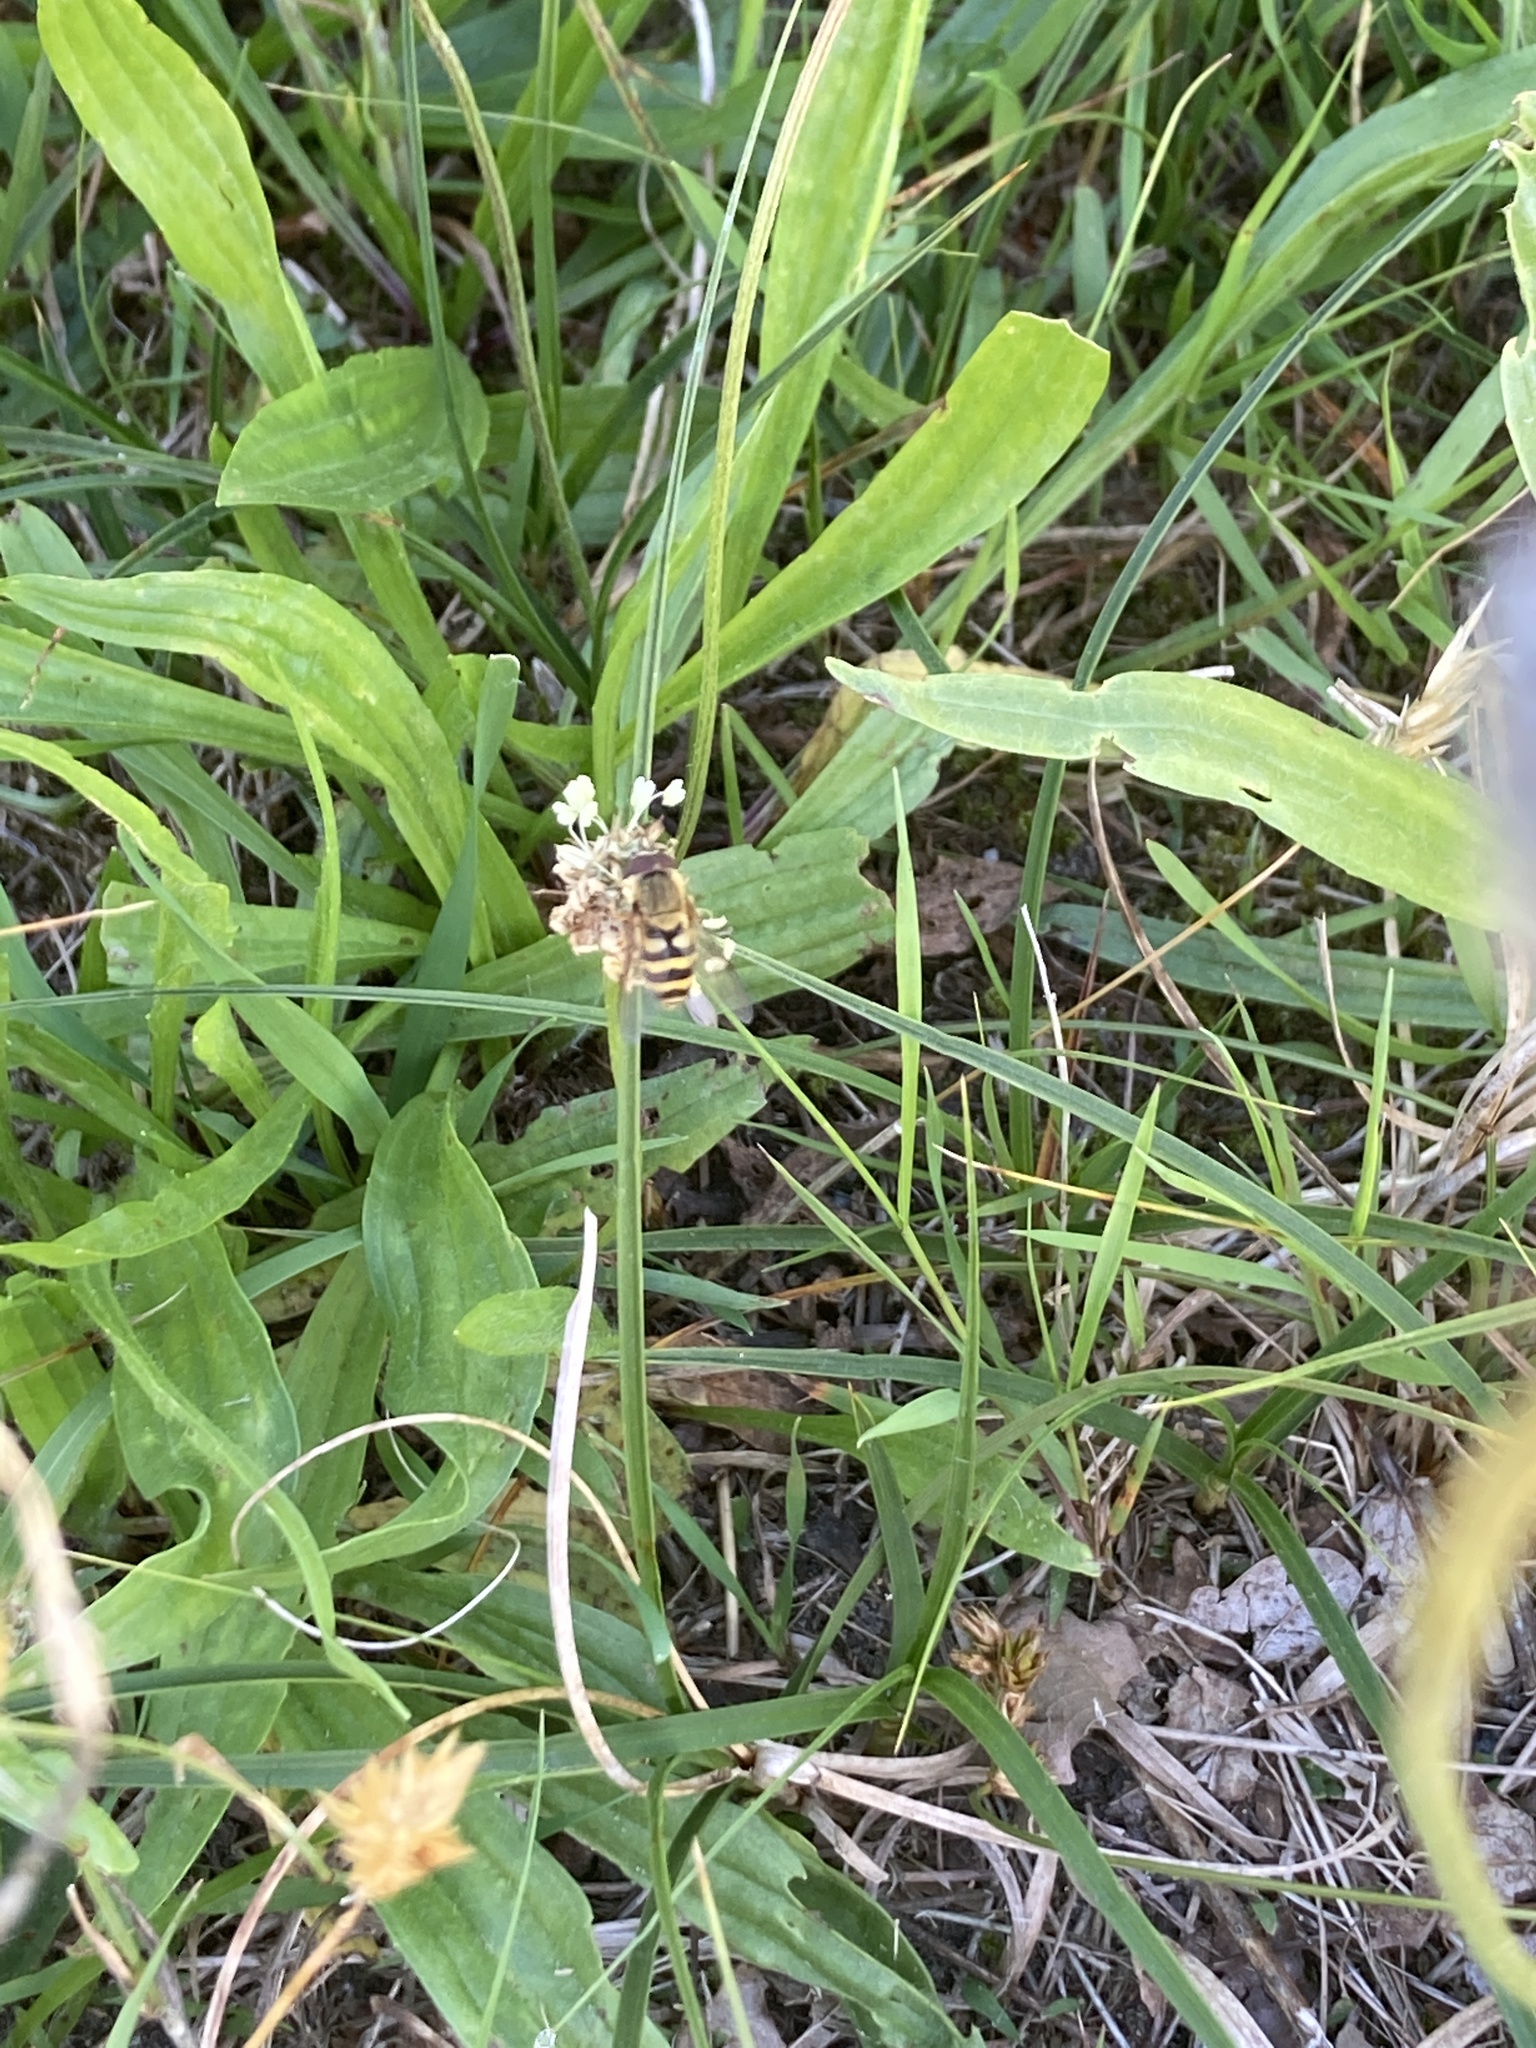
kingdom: Animalia
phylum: Arthropoda
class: Insecta
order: Diptera
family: Syrphidae
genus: Syrphus
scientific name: Syrphus
